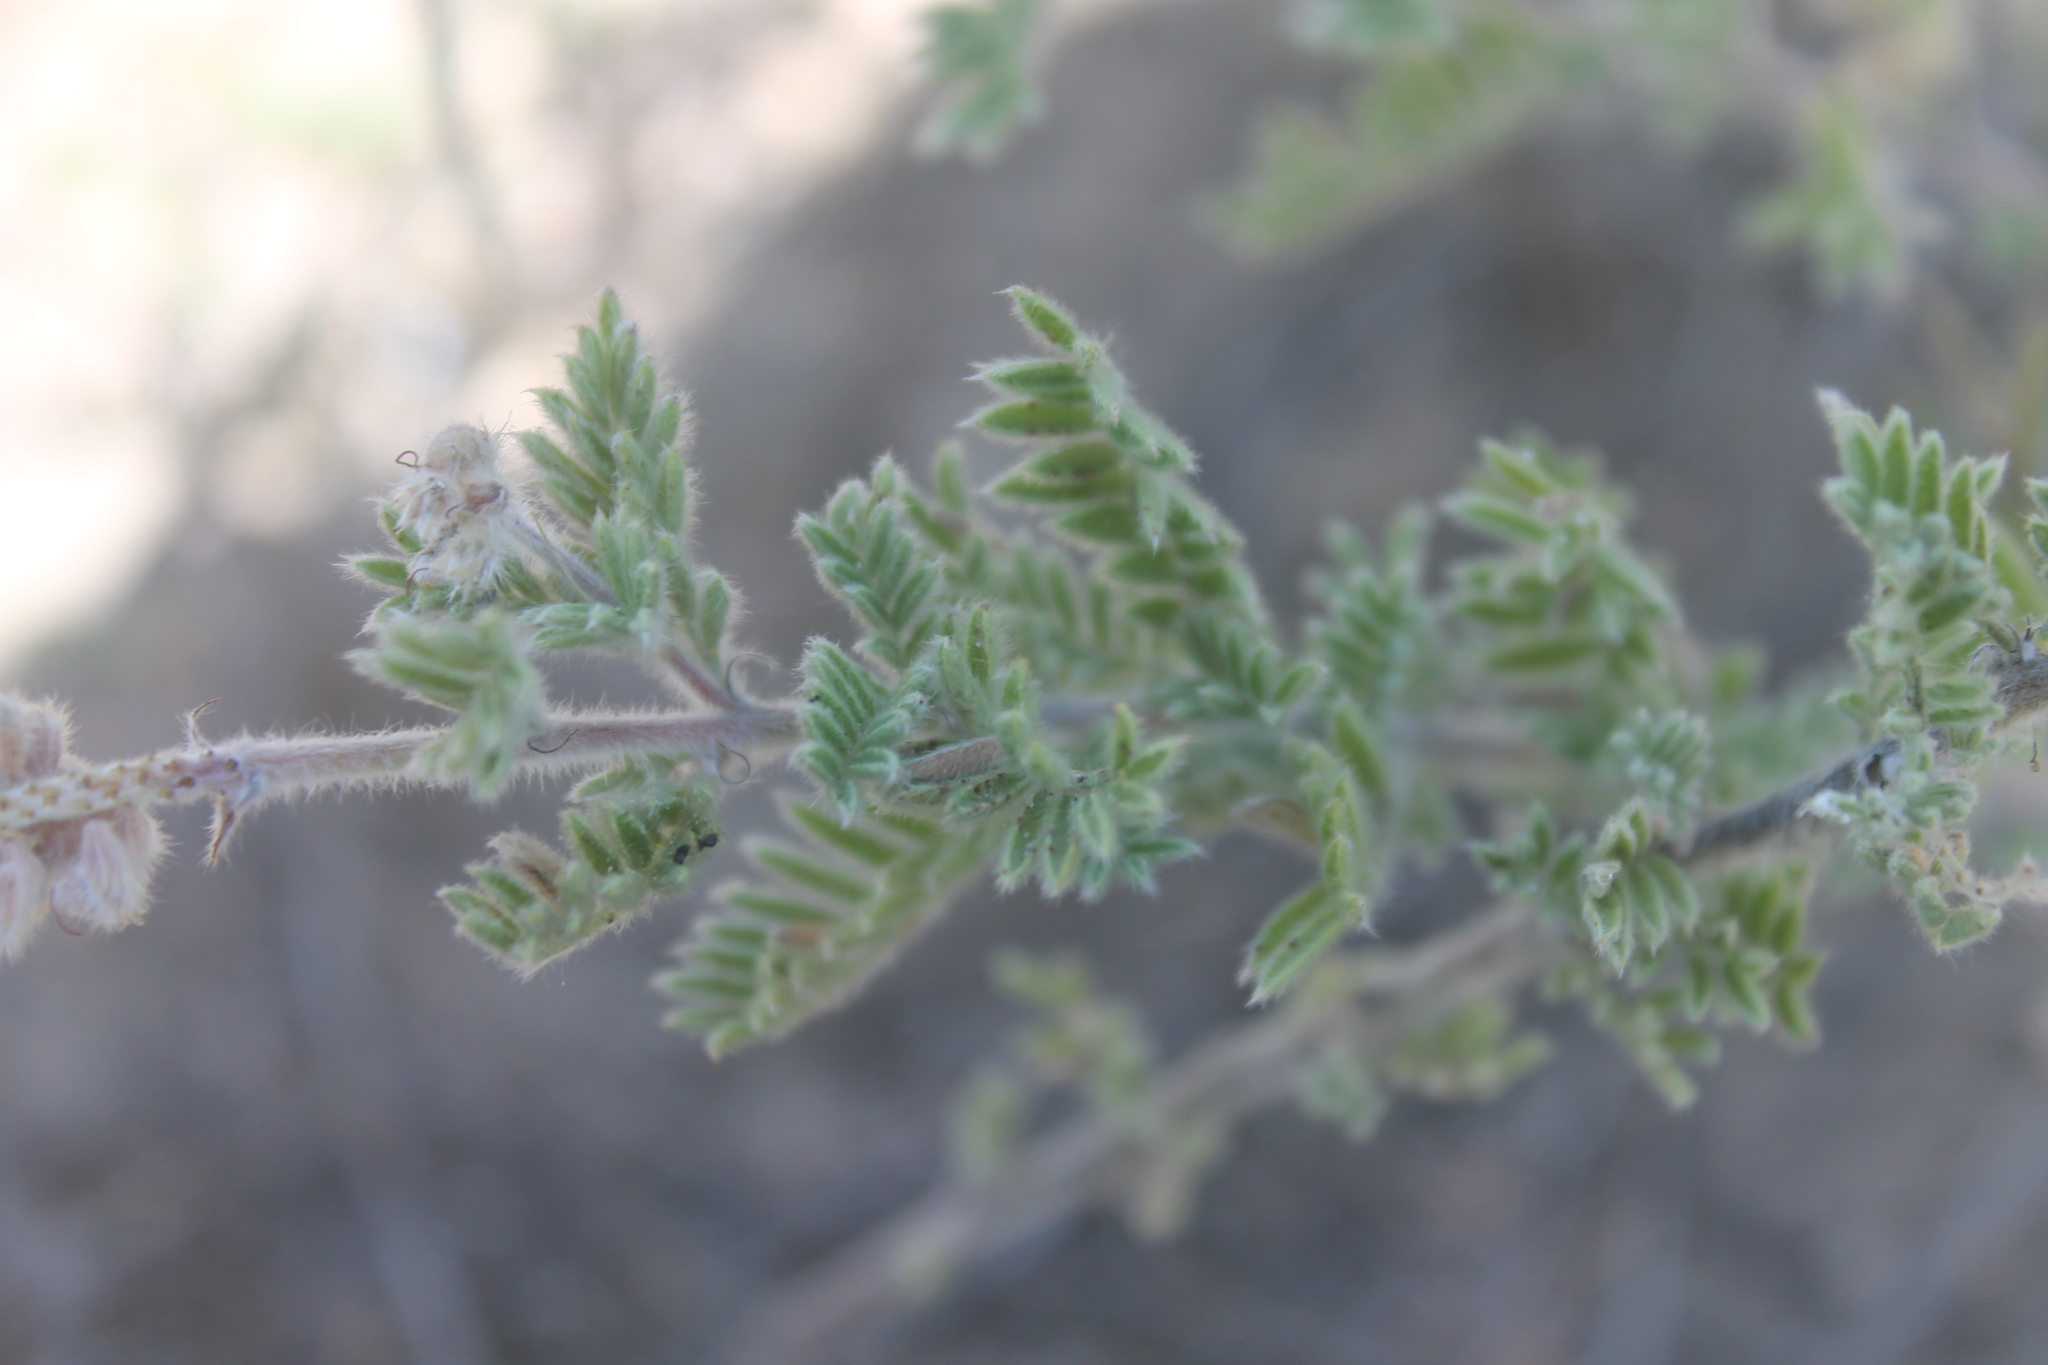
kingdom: Plantae
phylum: Tracheophyta
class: Magnoliopsida
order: Fabales
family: Fabaceae
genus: Dalea
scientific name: Dalea villosa
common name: Silky prairie-clover
